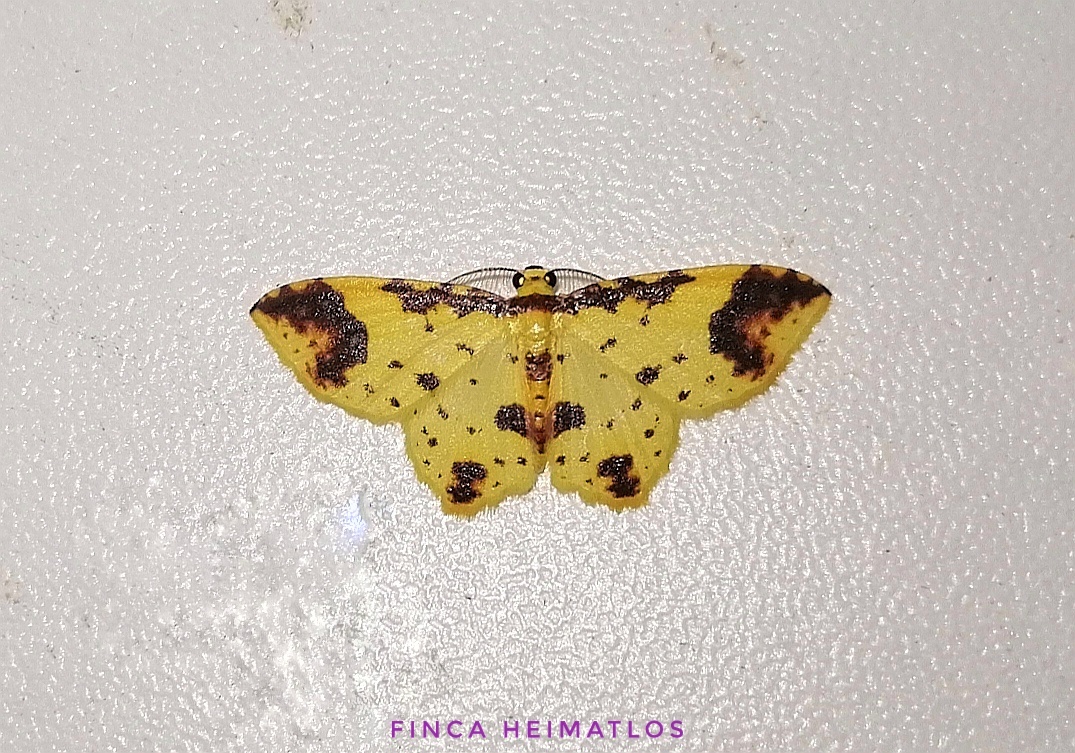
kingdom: Animalia
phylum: Arthropoda
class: Insecta
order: Lepidoptera
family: Geometridae
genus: Eois
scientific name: Eois restrictata
